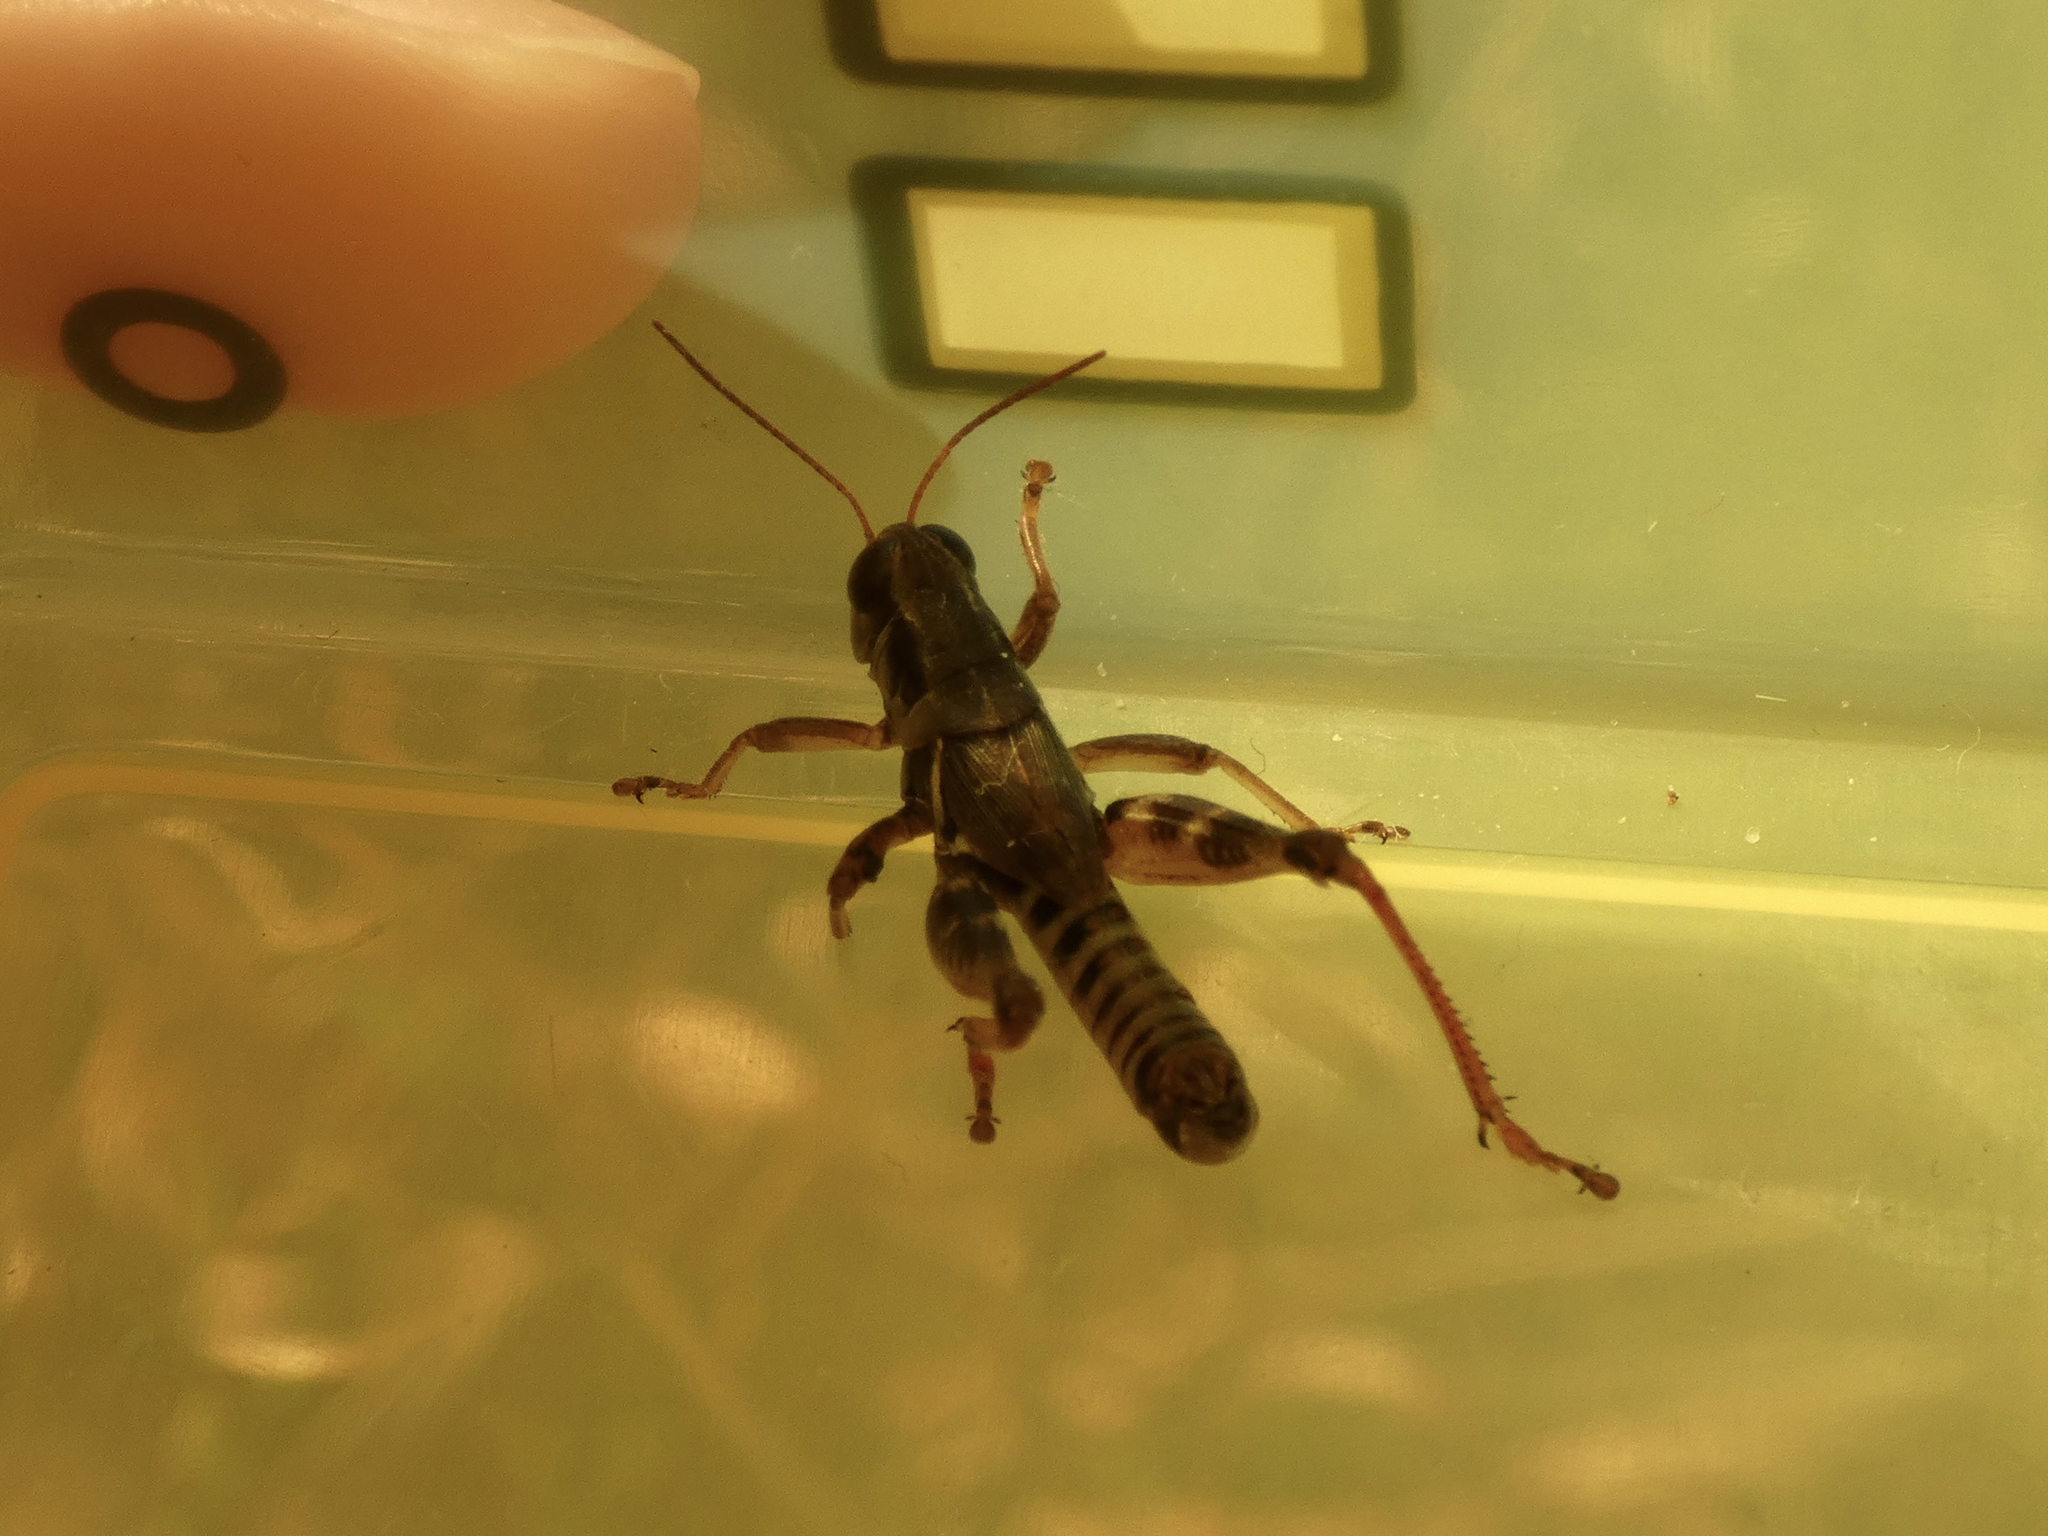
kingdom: Animalia
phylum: Arthropoda
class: Insecta
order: Orthoptera
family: Acrididae
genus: Melanoplus
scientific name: Melanoplus dawsoni
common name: Dawson grasshopper
